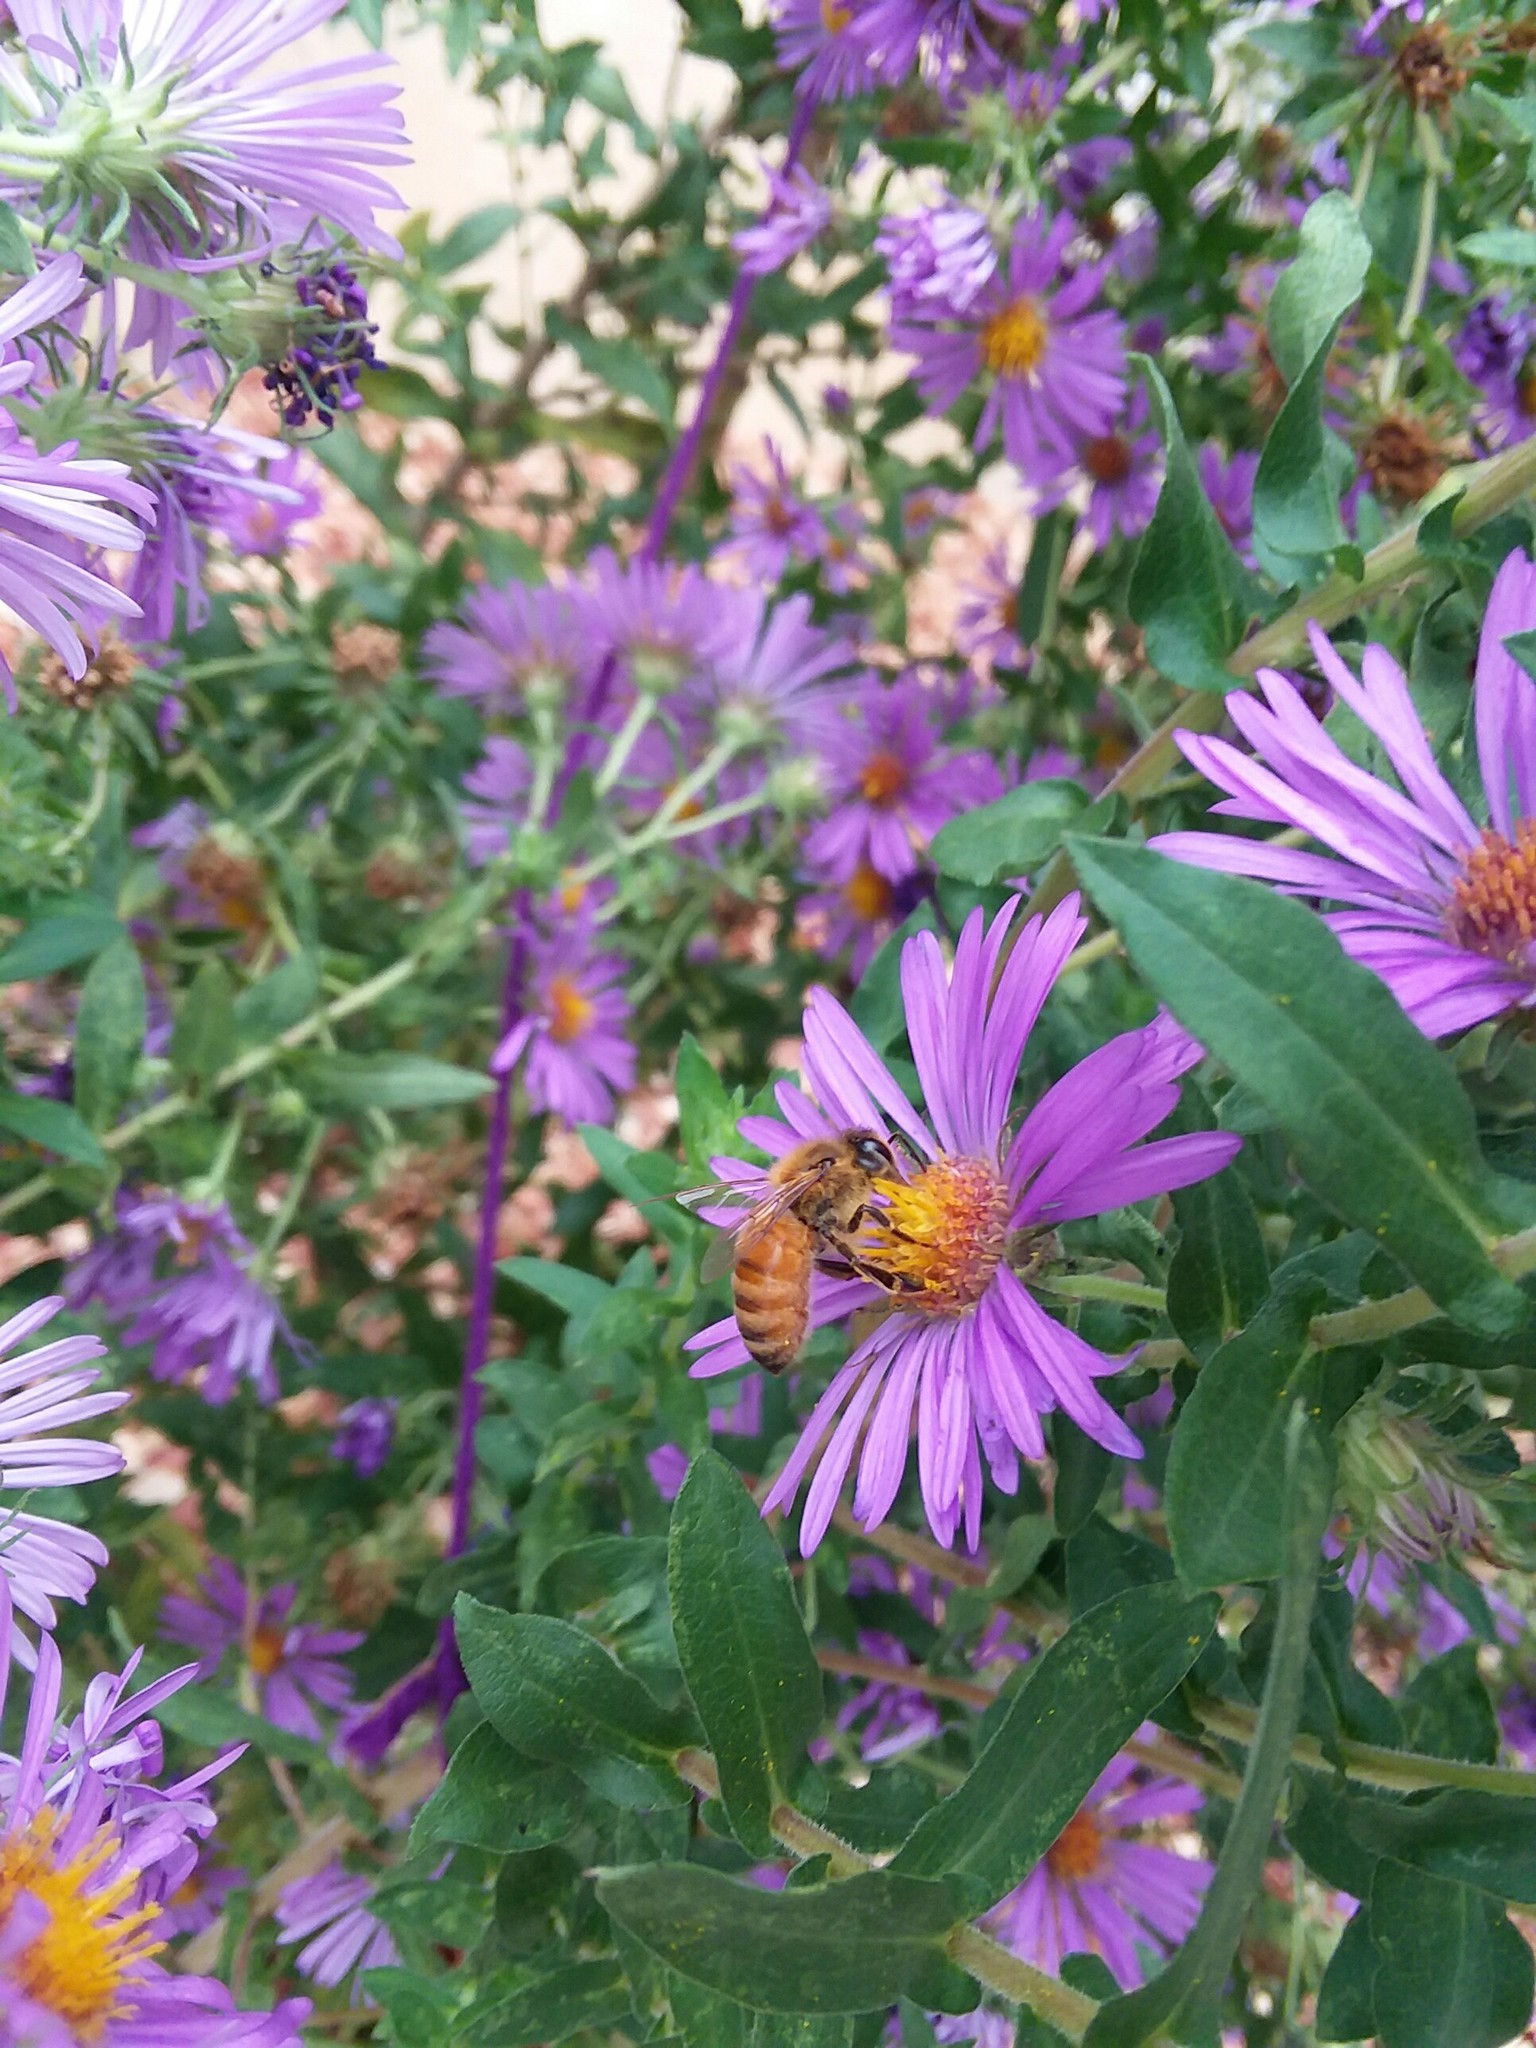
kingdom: Animalia
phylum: Arthropoda
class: Insecta
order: Hymenoptera
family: Apidae
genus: Apis
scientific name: Apis mellifera
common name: Honey bee
